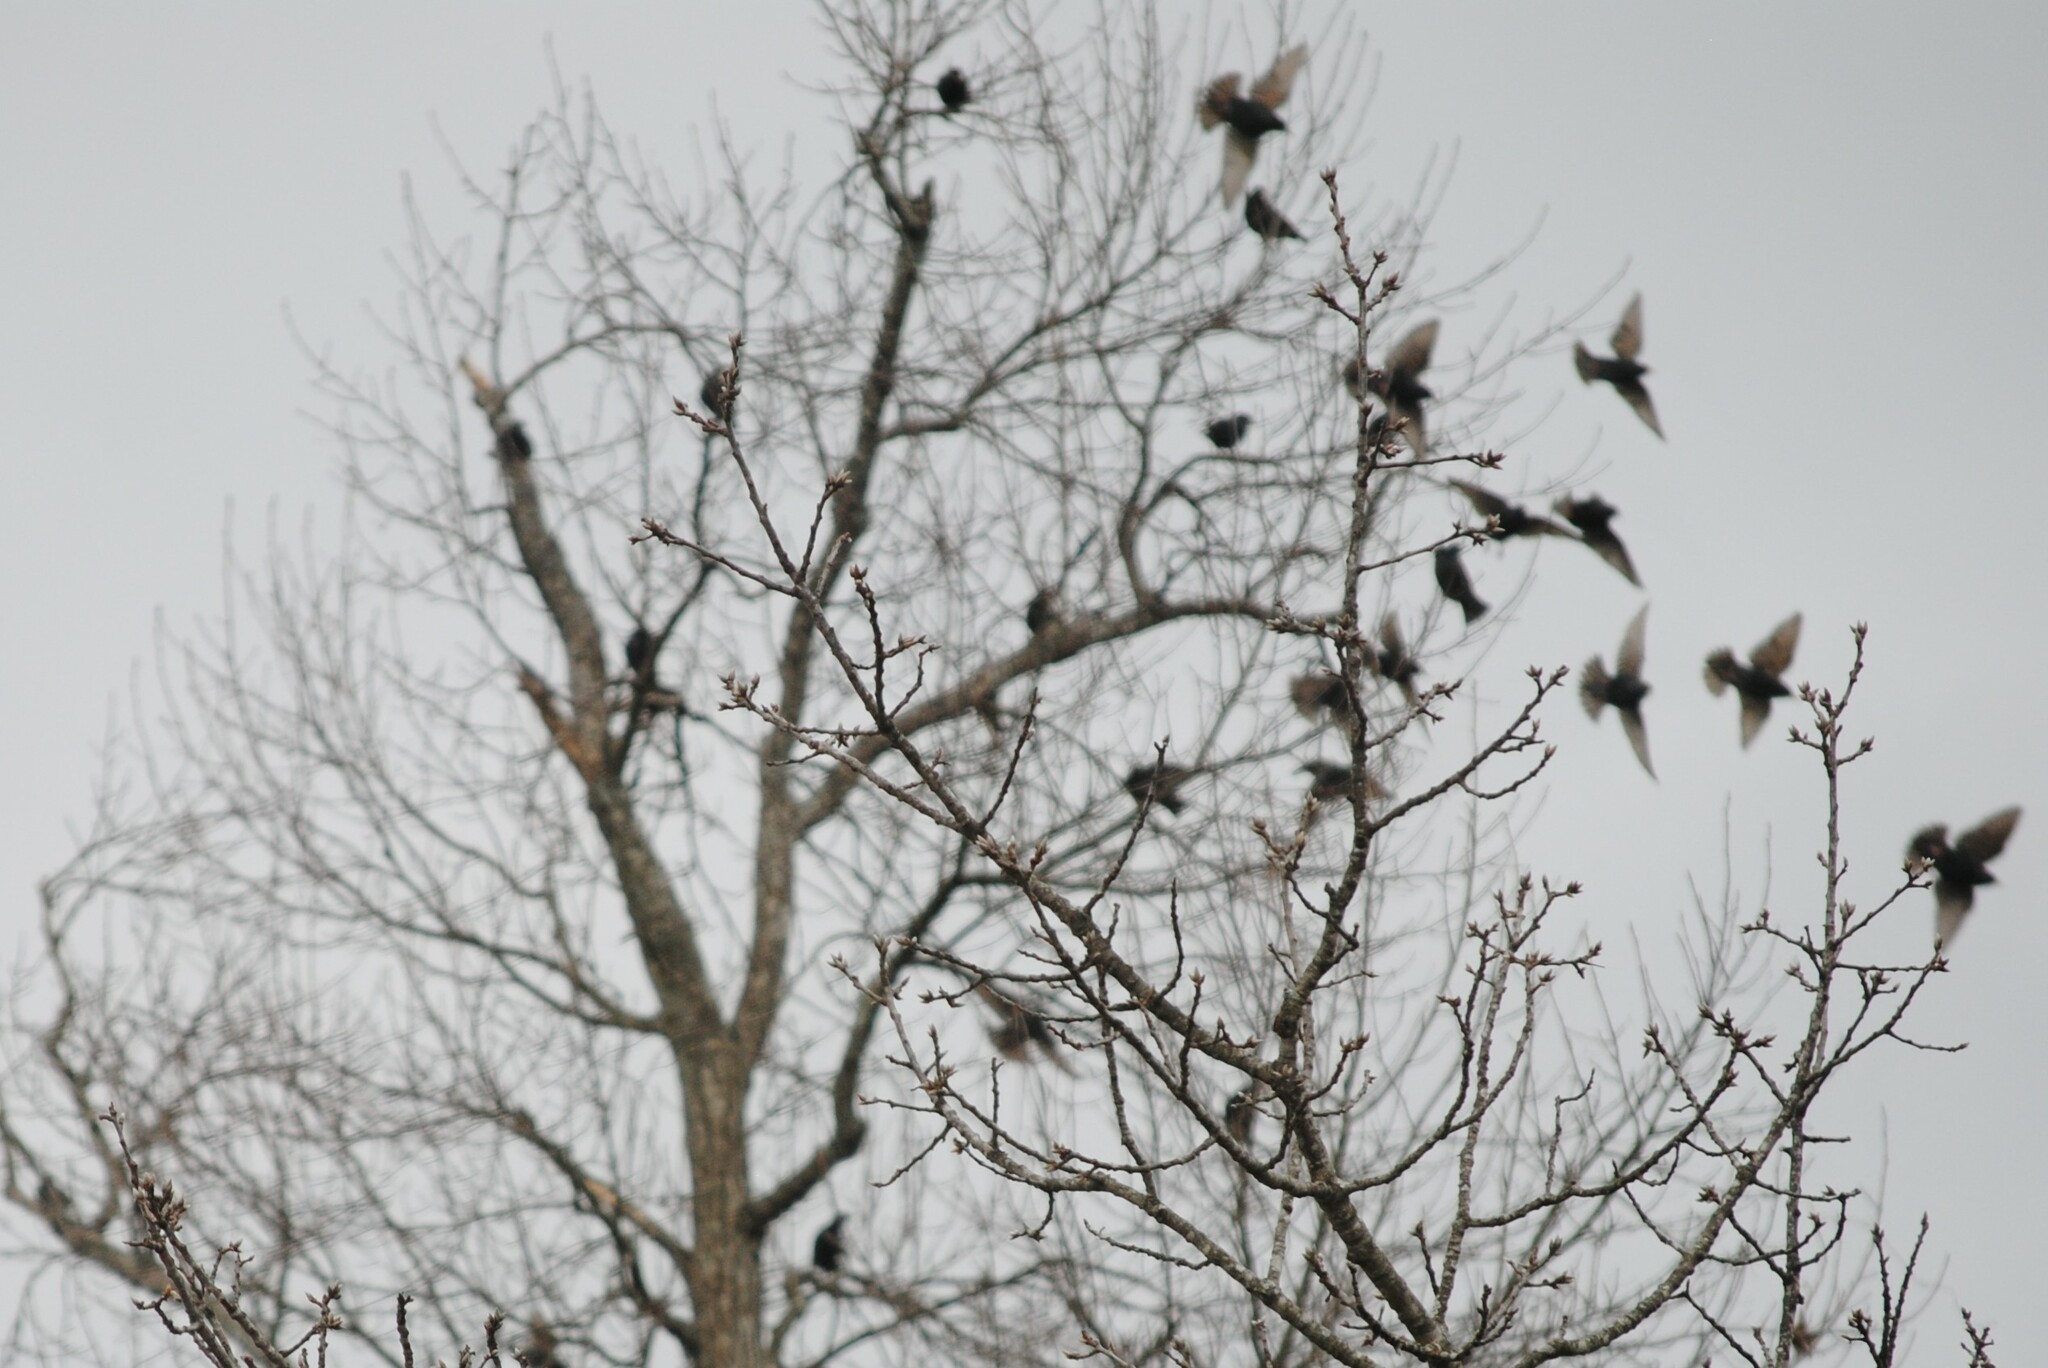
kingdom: Animalia
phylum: Chordata
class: Aves
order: Passeriformes
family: Sturnidae
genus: Sturnus
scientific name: Sturnus vulgaris
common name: Common starling
